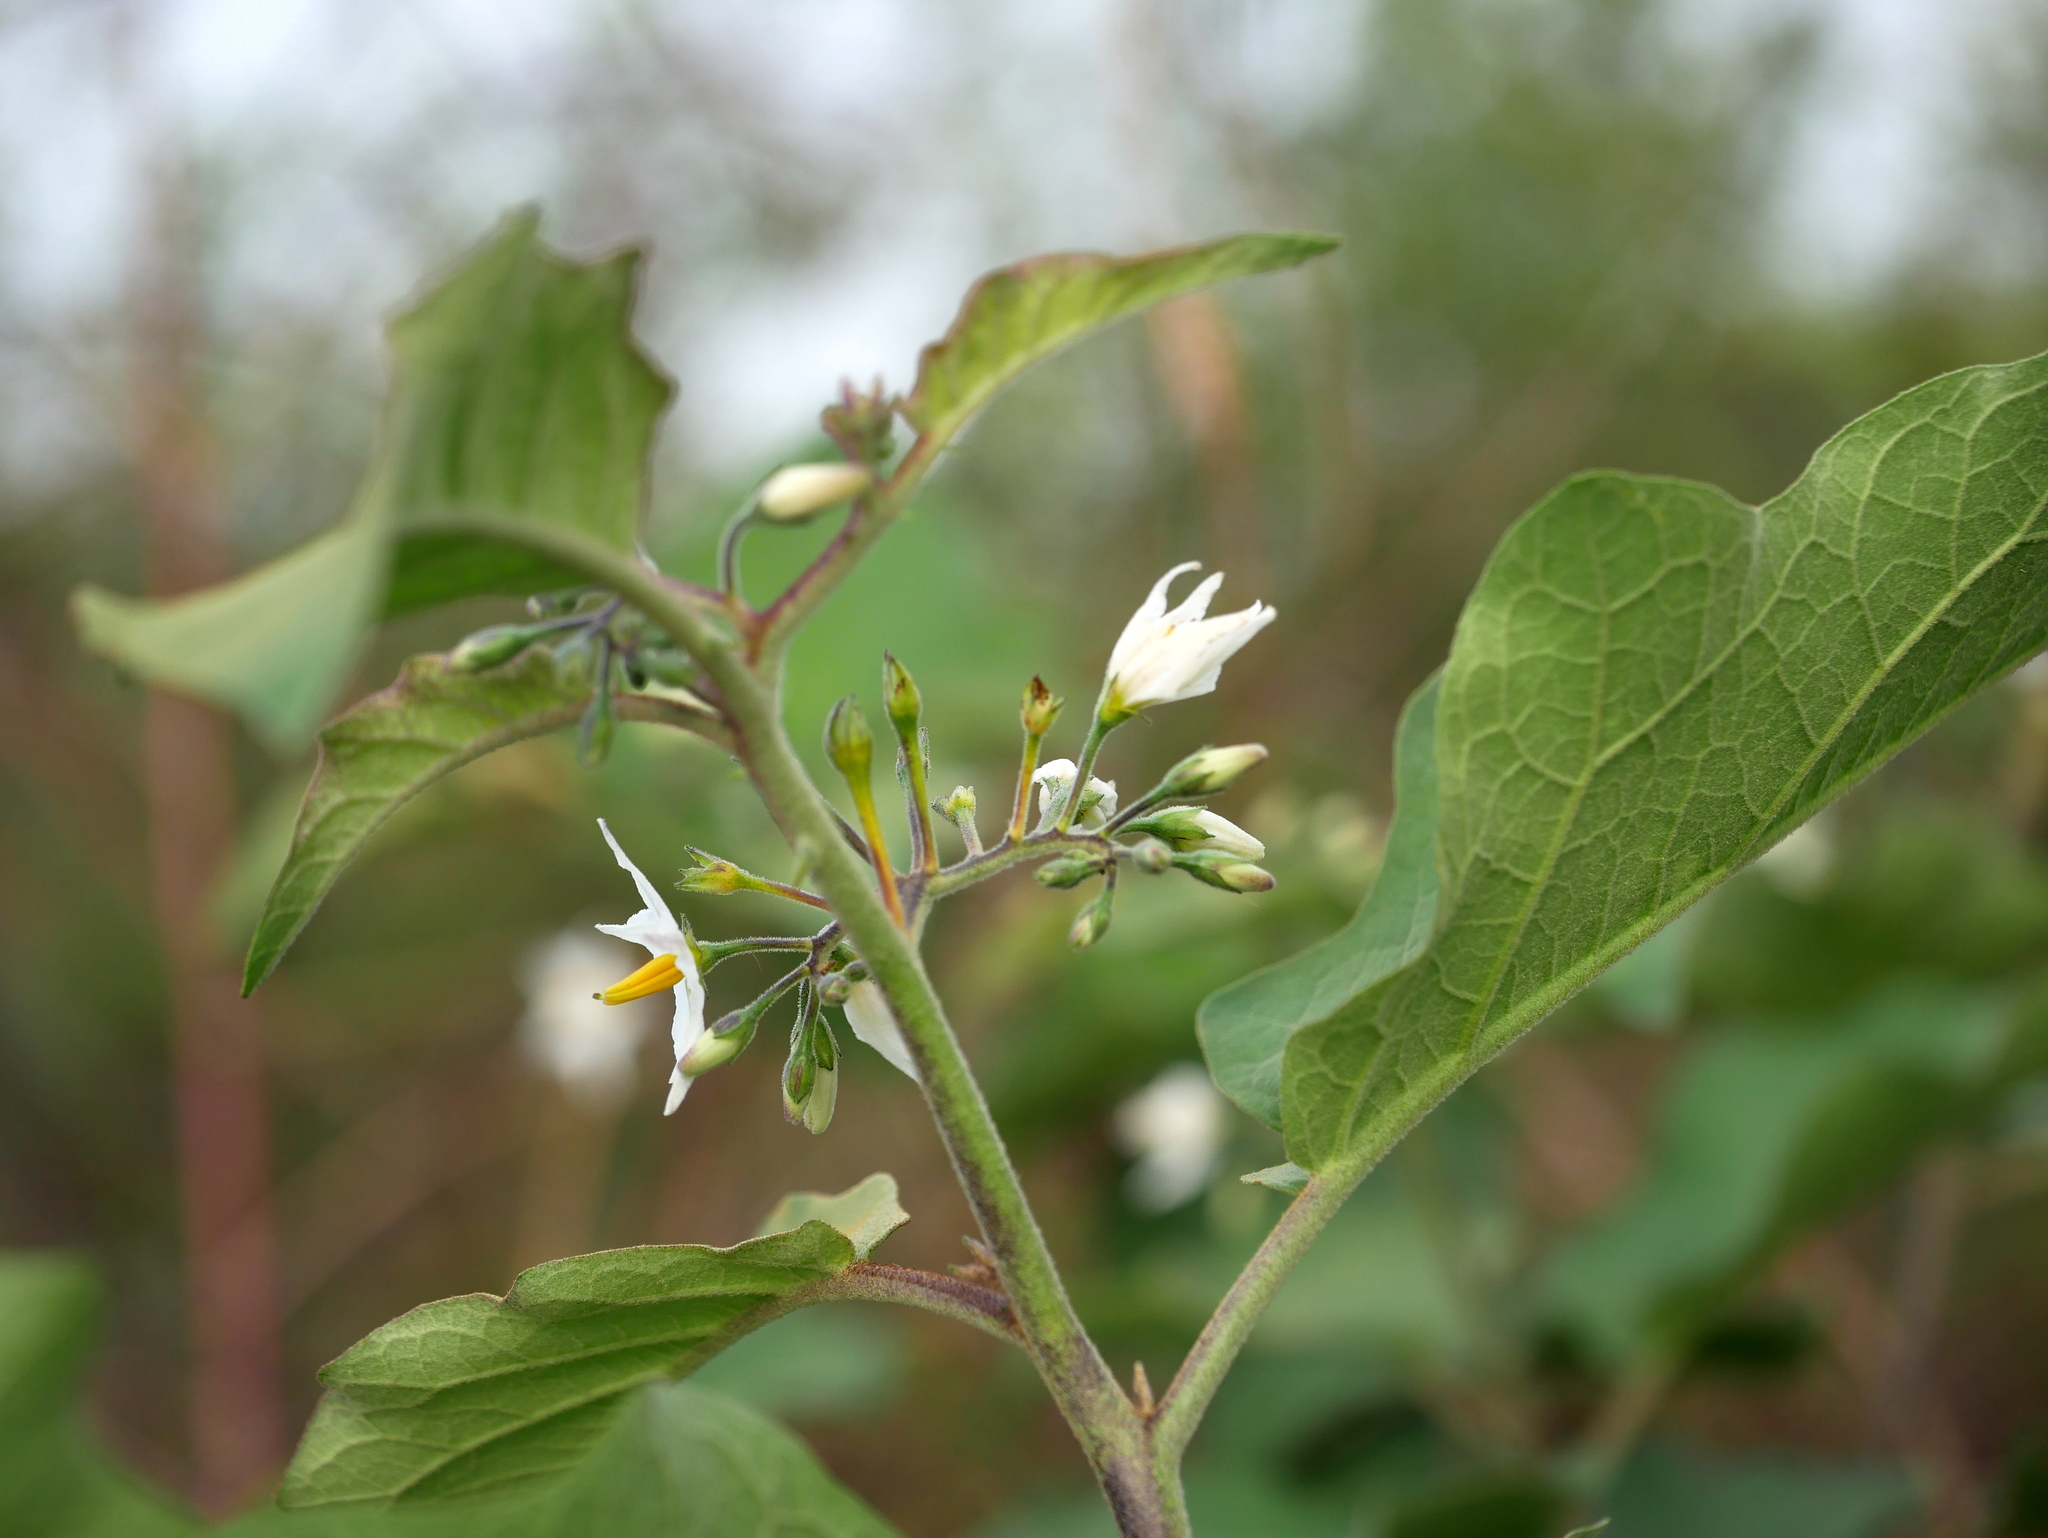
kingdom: Plantae
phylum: Tracheophyta
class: Magnoliopsida
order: Solanales
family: Solanaceae
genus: Solanum
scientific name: Solanum torvum
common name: Turkey berry
